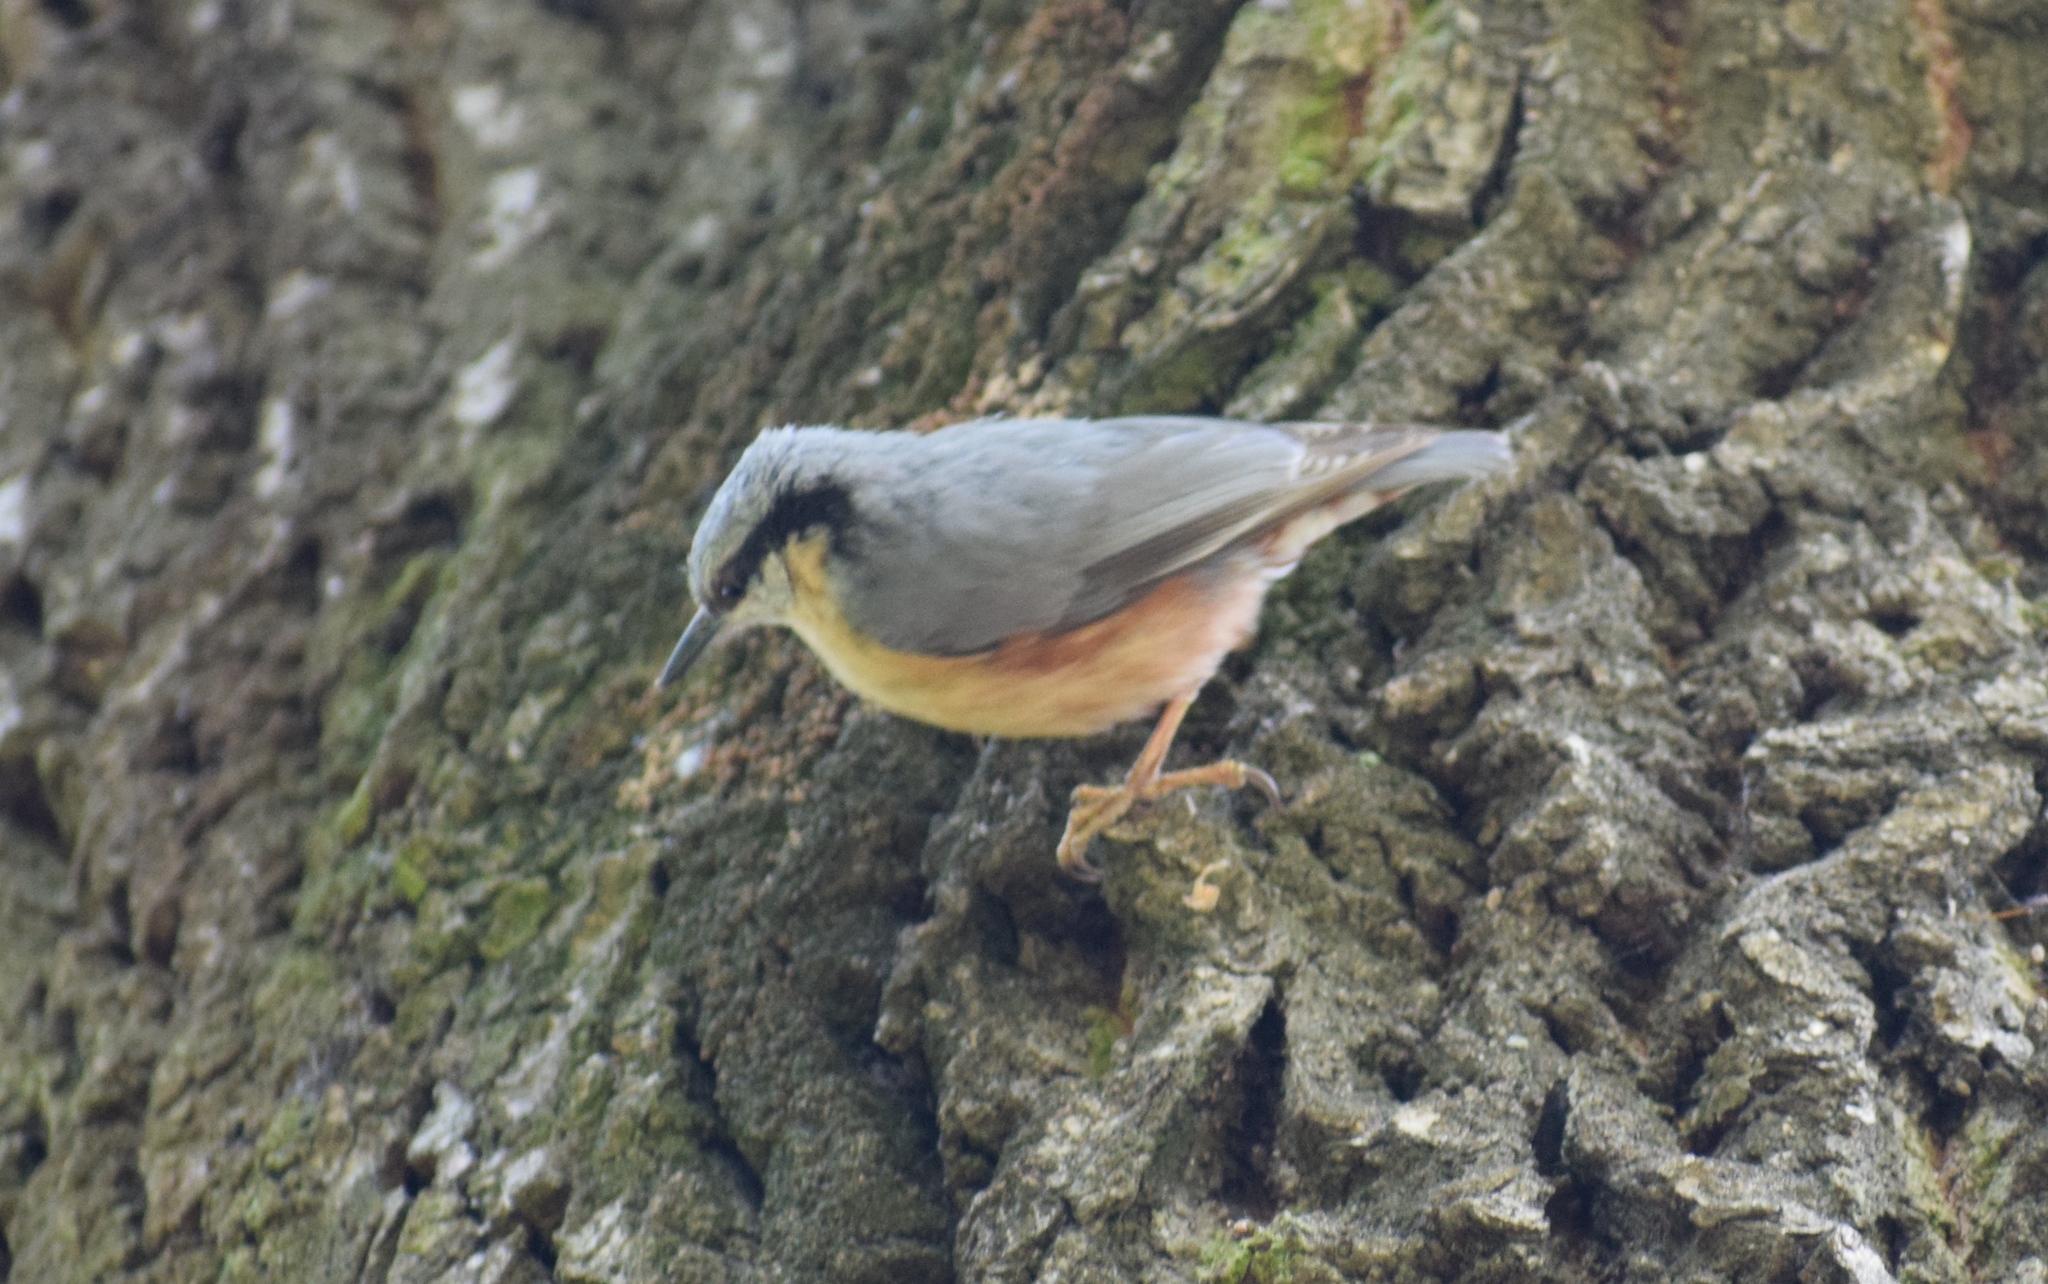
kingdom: Animalia
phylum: Chordata
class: Aves
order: Passeriformes
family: Sittidae
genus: Sitta
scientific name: Sitta europaea
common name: Eurasian nuthatch
